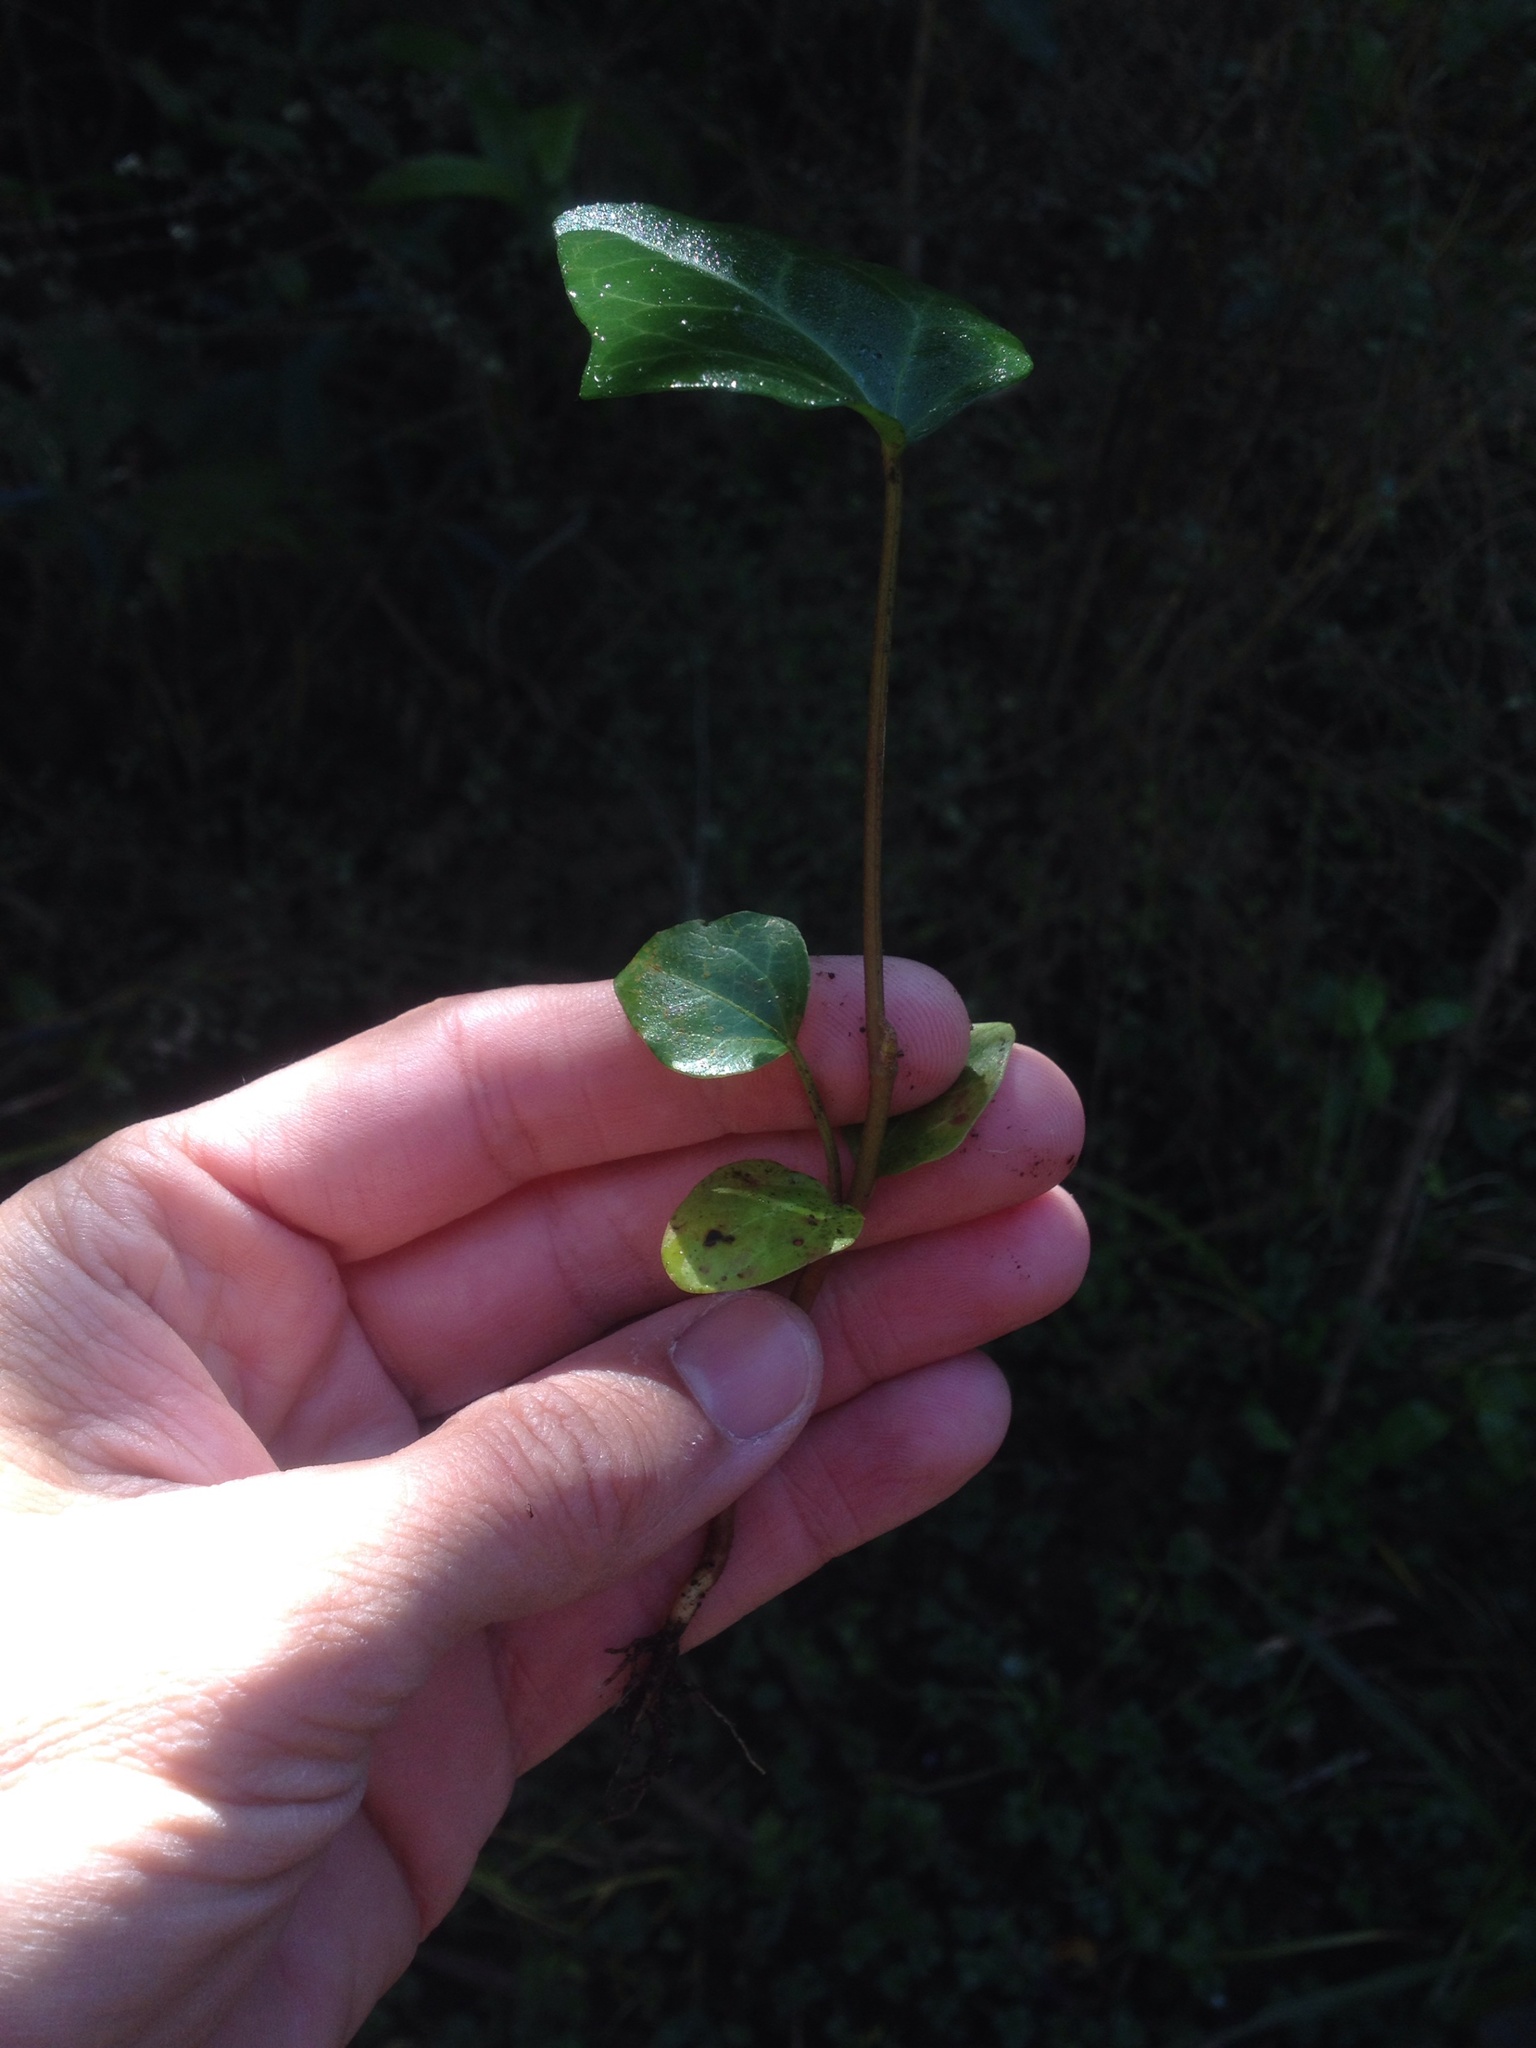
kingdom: Plantae
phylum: Tracheophyta
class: Magnoliopsida
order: Apiales
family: Araliaceae
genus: Hedera
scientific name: Hedera helix
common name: Ivy
